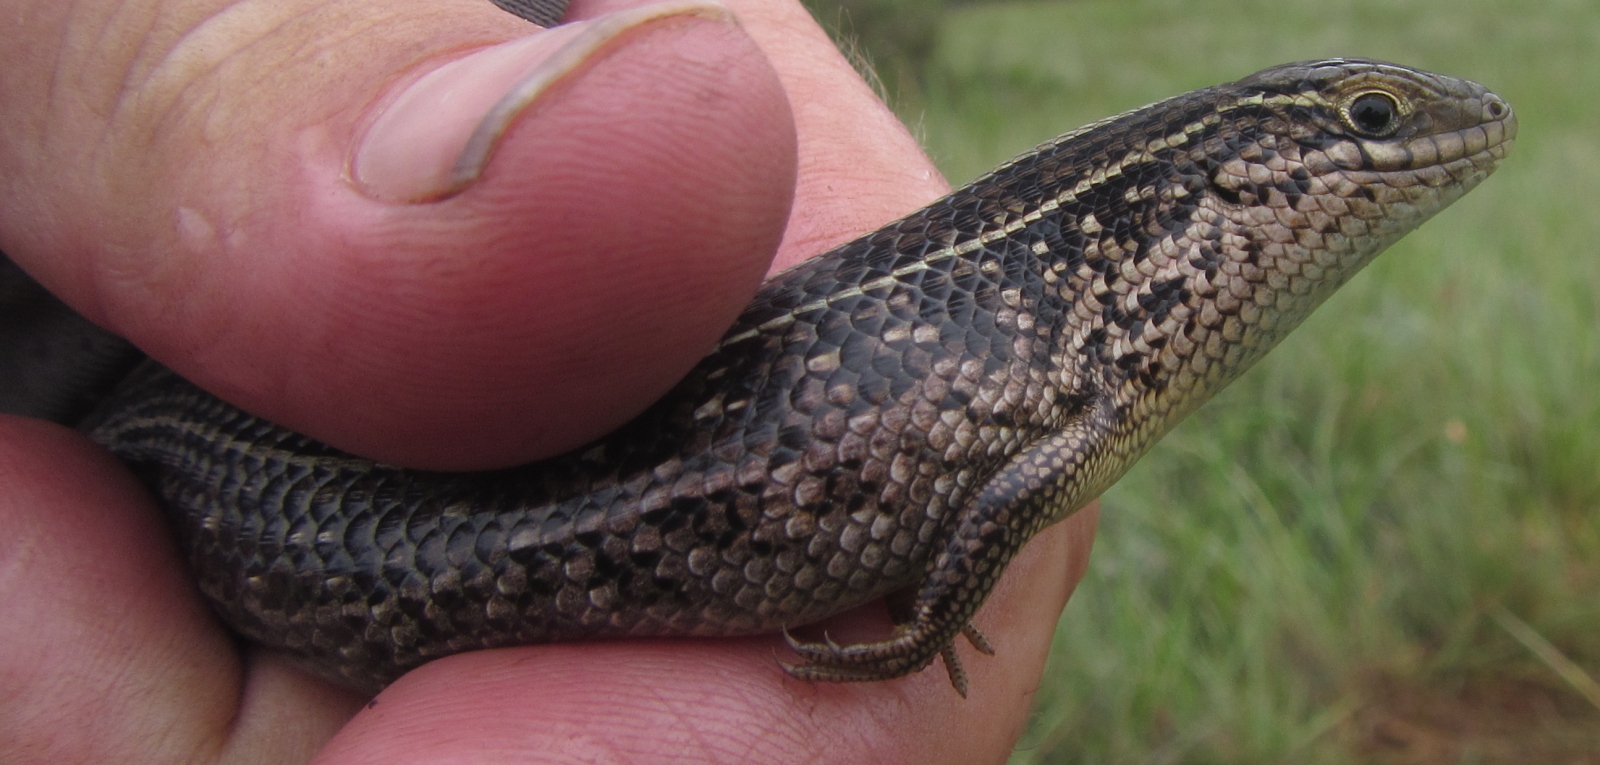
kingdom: Animalia
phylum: Chordata
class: Squamata
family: Scincidae
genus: Trachylepis
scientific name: Trachylepis capensis
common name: Cape skink
